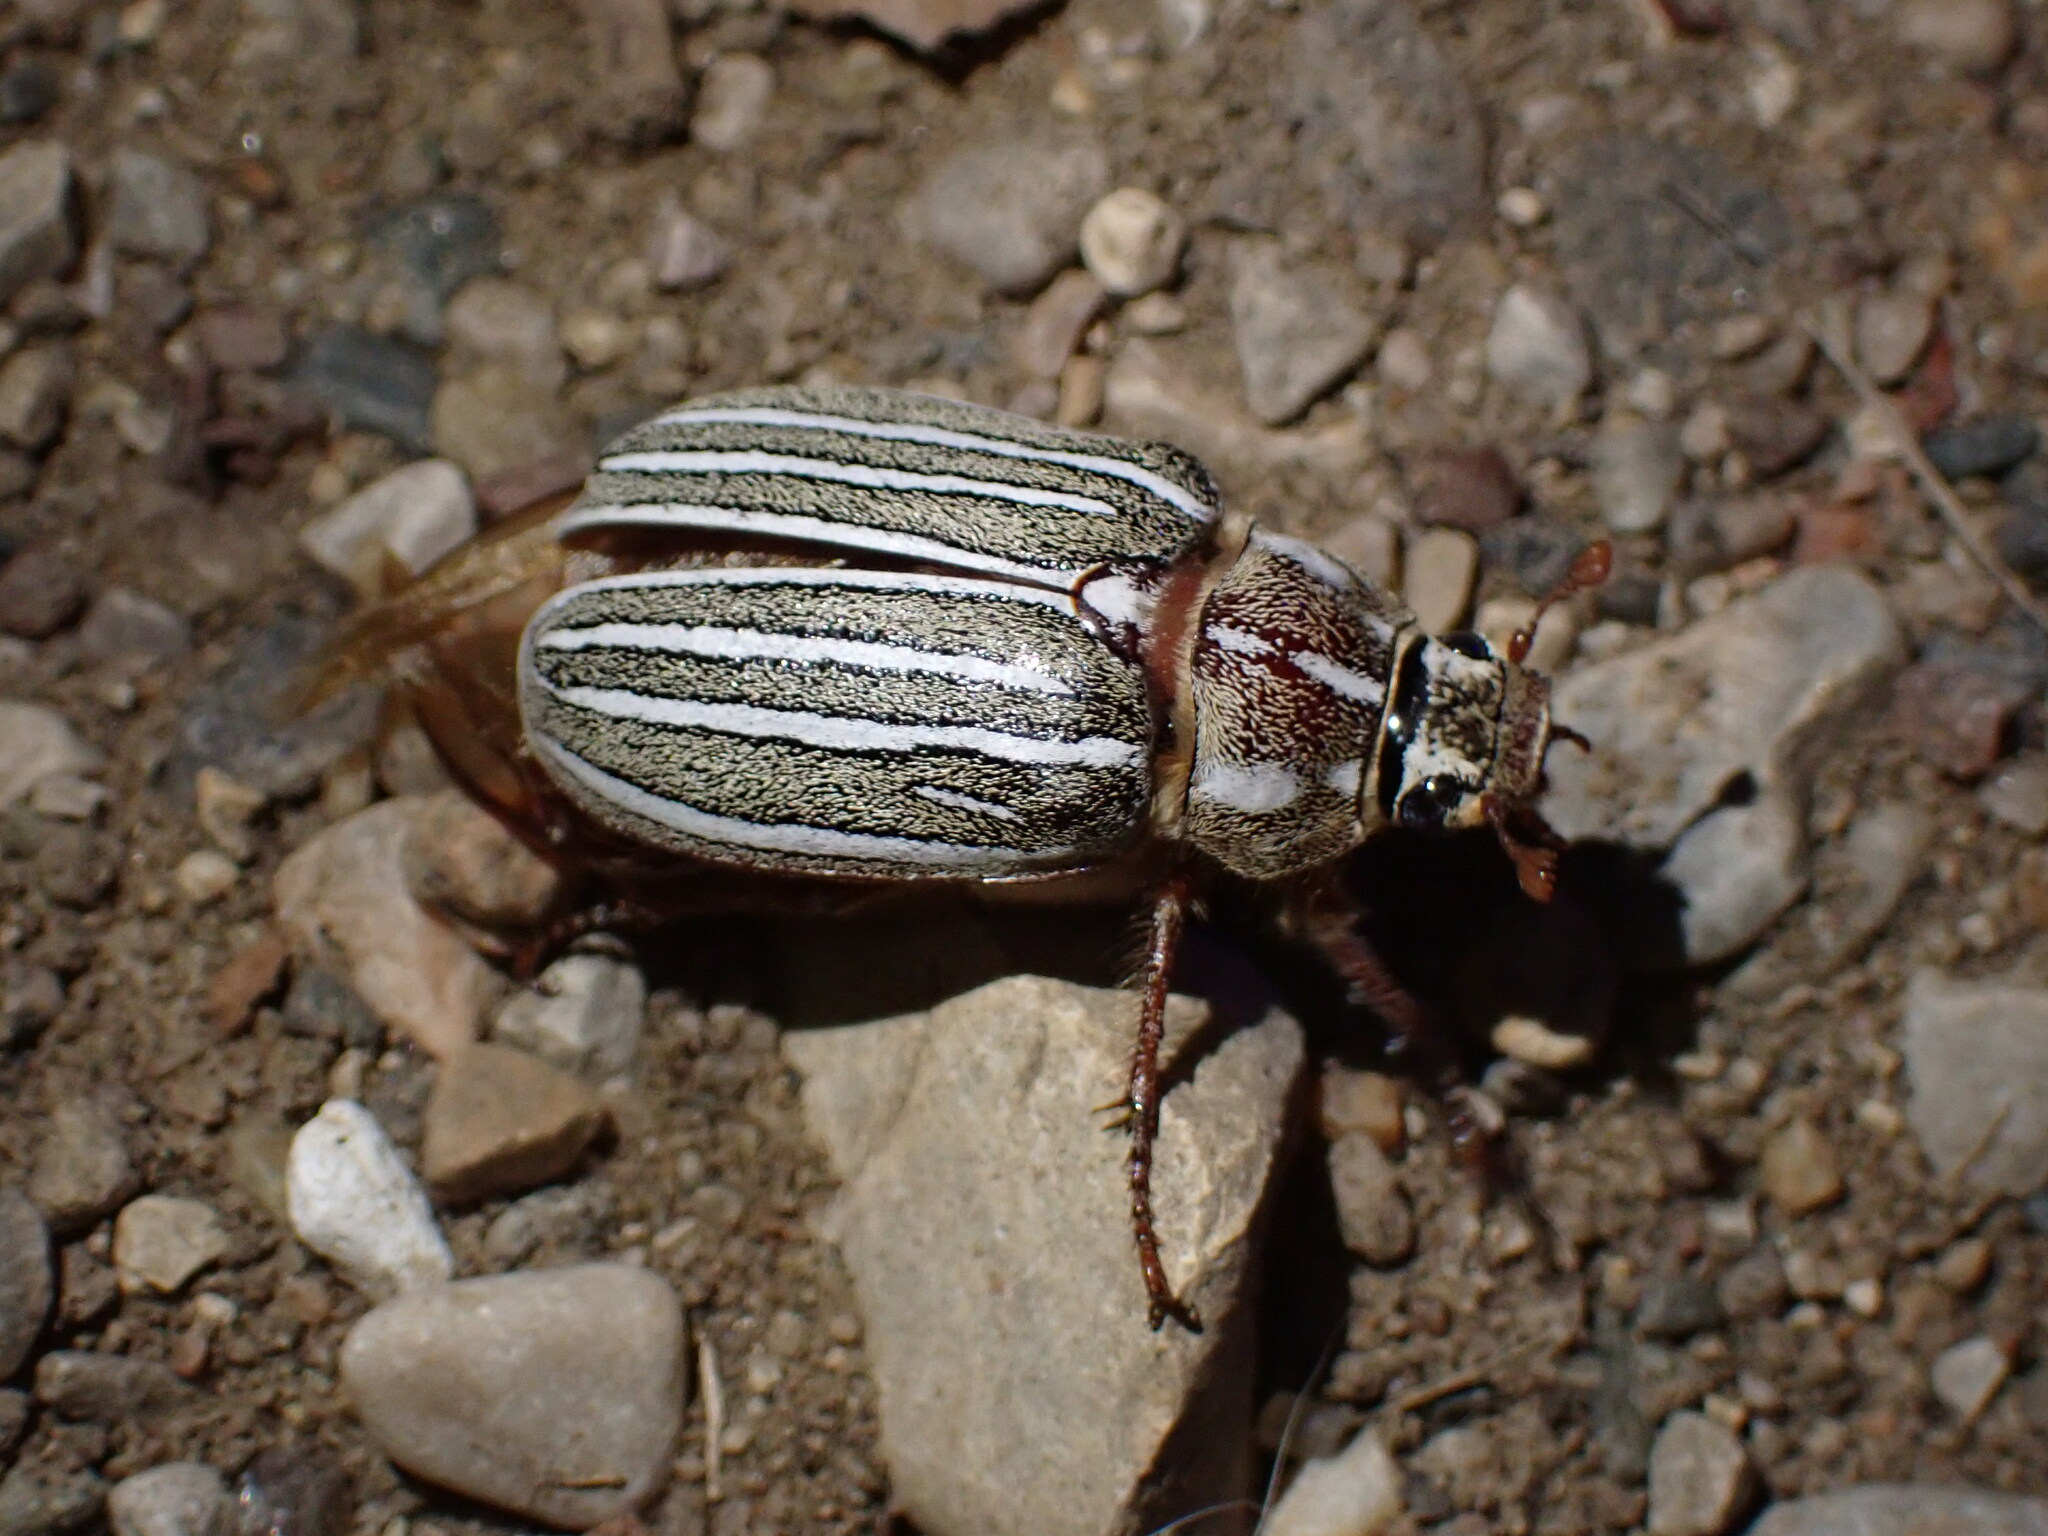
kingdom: Animalia
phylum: Arthropoda
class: Insecta
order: Coleoptera
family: Scarabaeidae
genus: Polyphylla
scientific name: Polyphylla decemlineata
